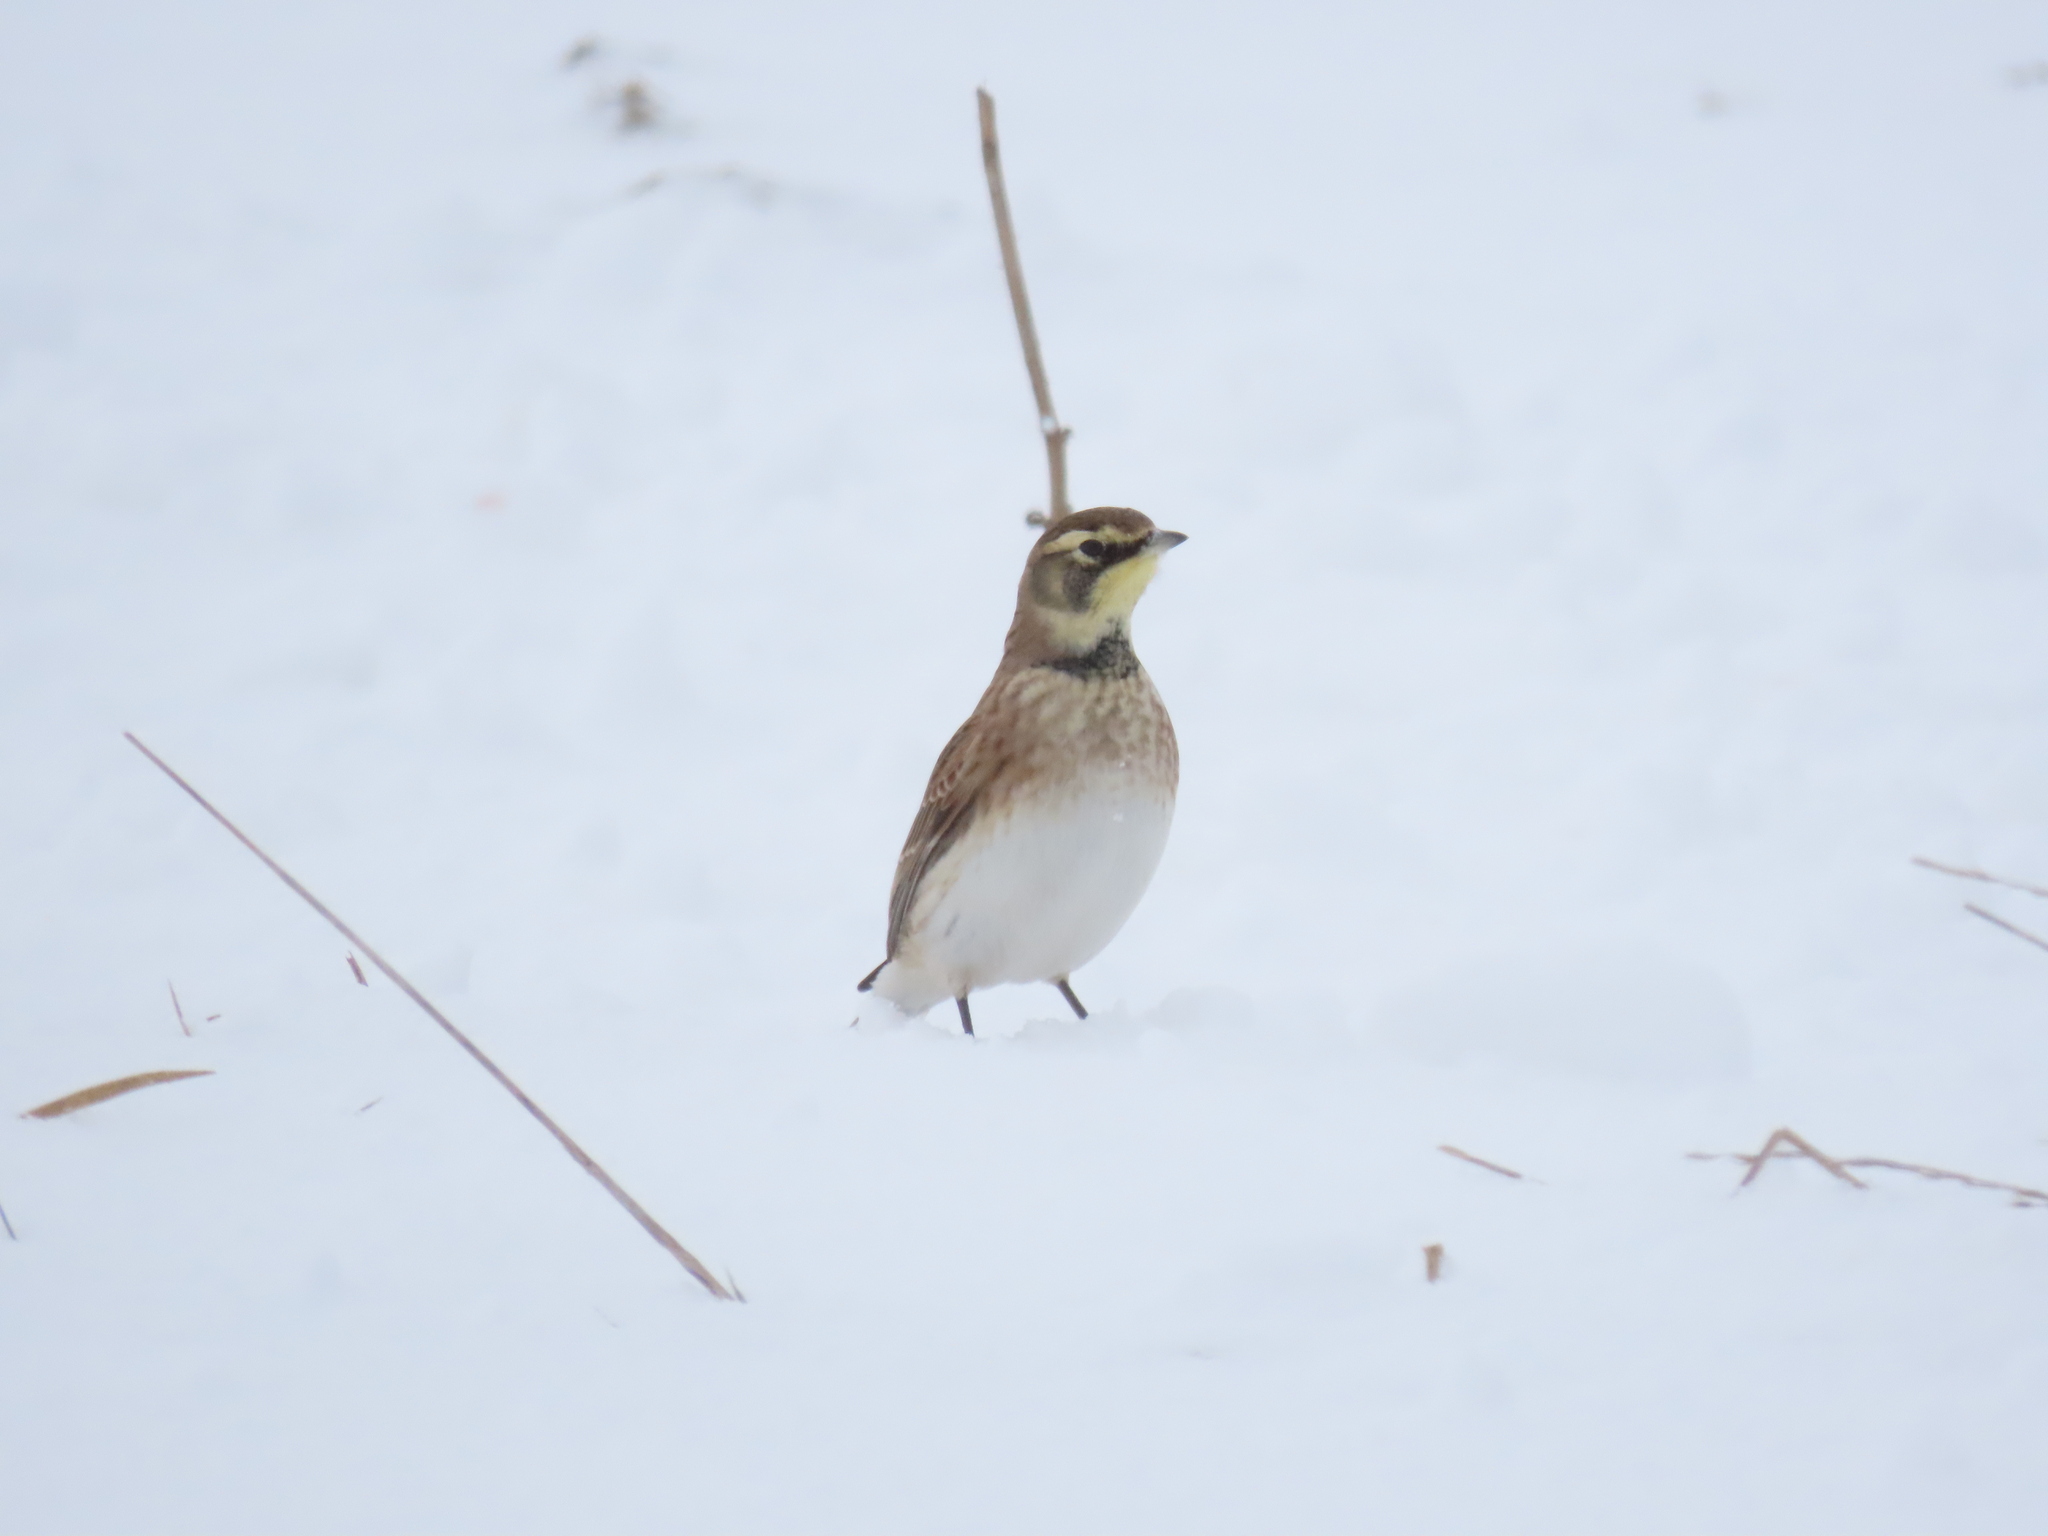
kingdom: Animalia
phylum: Chordata
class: Aves
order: Passeriformes
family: Alaudidae
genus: Eremophila
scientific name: Eremophila alpestris
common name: Horned lark
